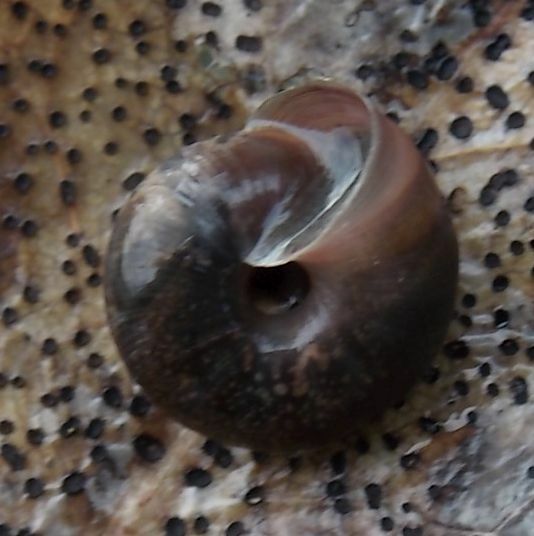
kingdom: Animalia
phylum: Mollusca
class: Gastropoda
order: Stylommatophora
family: Hygromiidae
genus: Trochulus
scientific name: Trochulus striolatus
